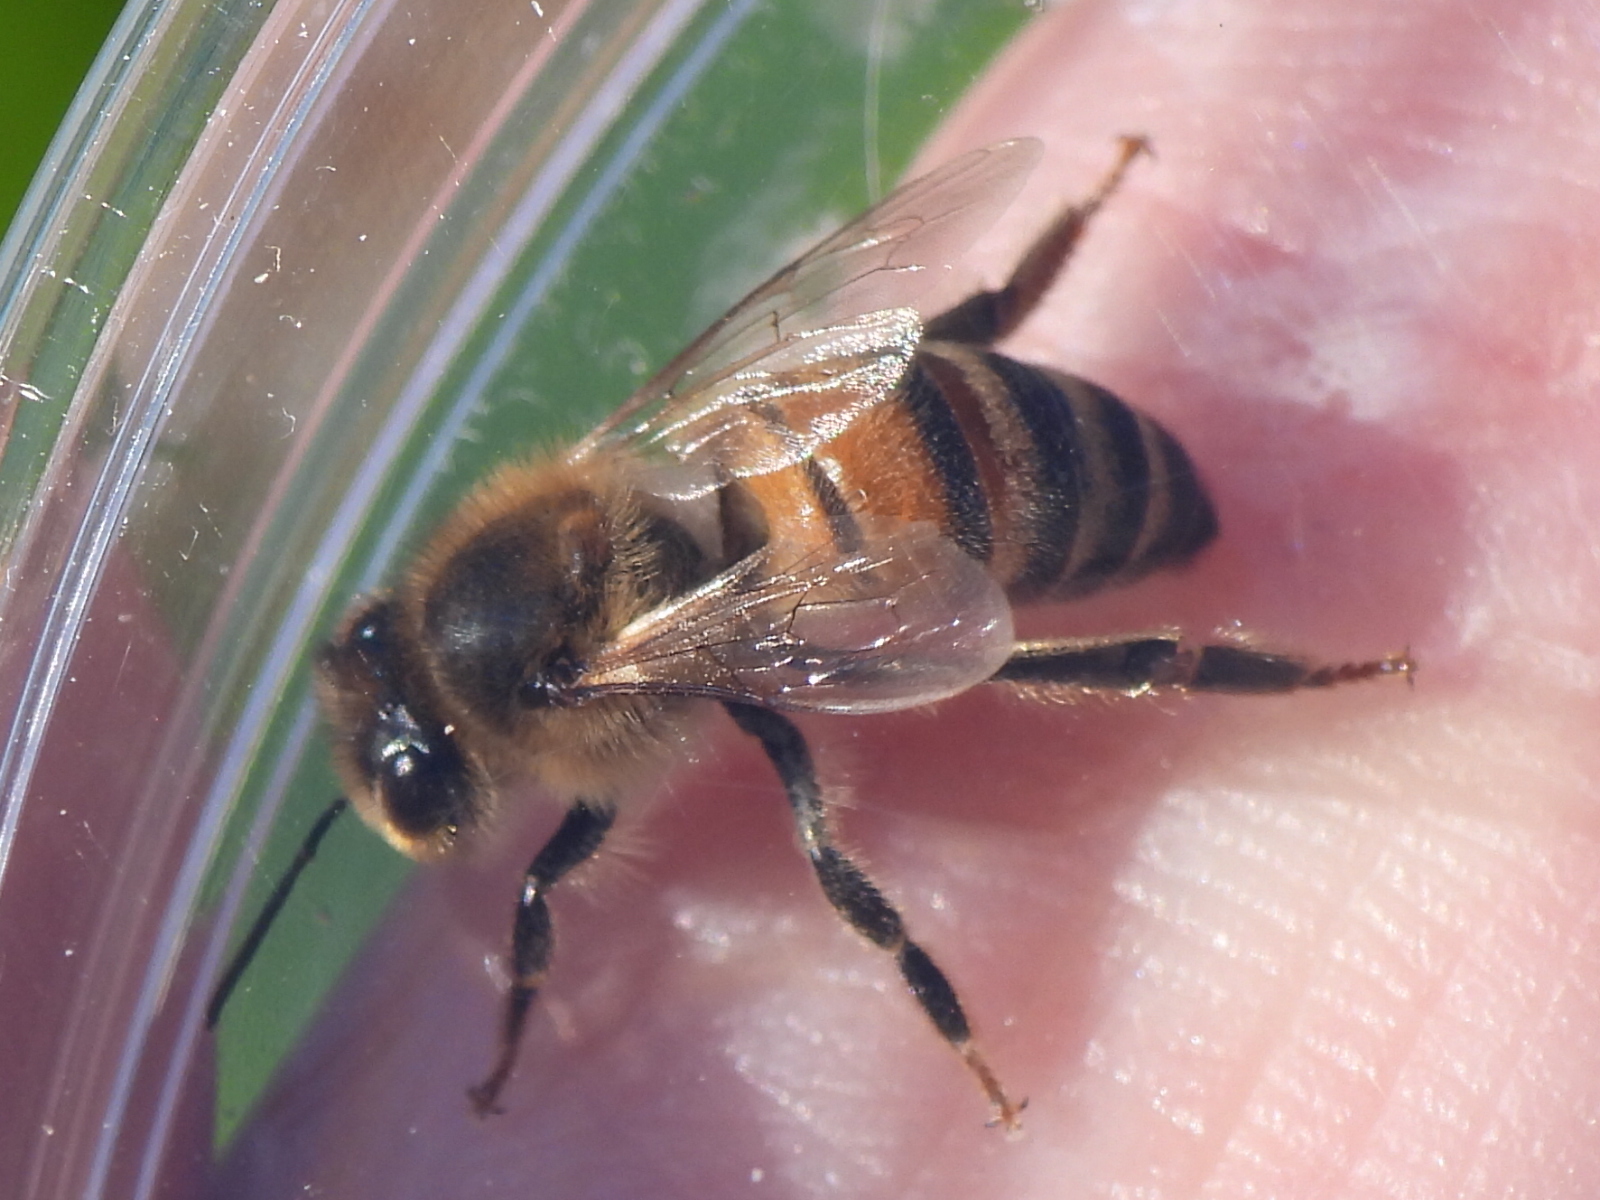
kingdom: Animalia
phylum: Arthropoda
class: Insecta
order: Hymenoptera
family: Apidae
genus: Apis
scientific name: Apis mellifera
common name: Honey bee
